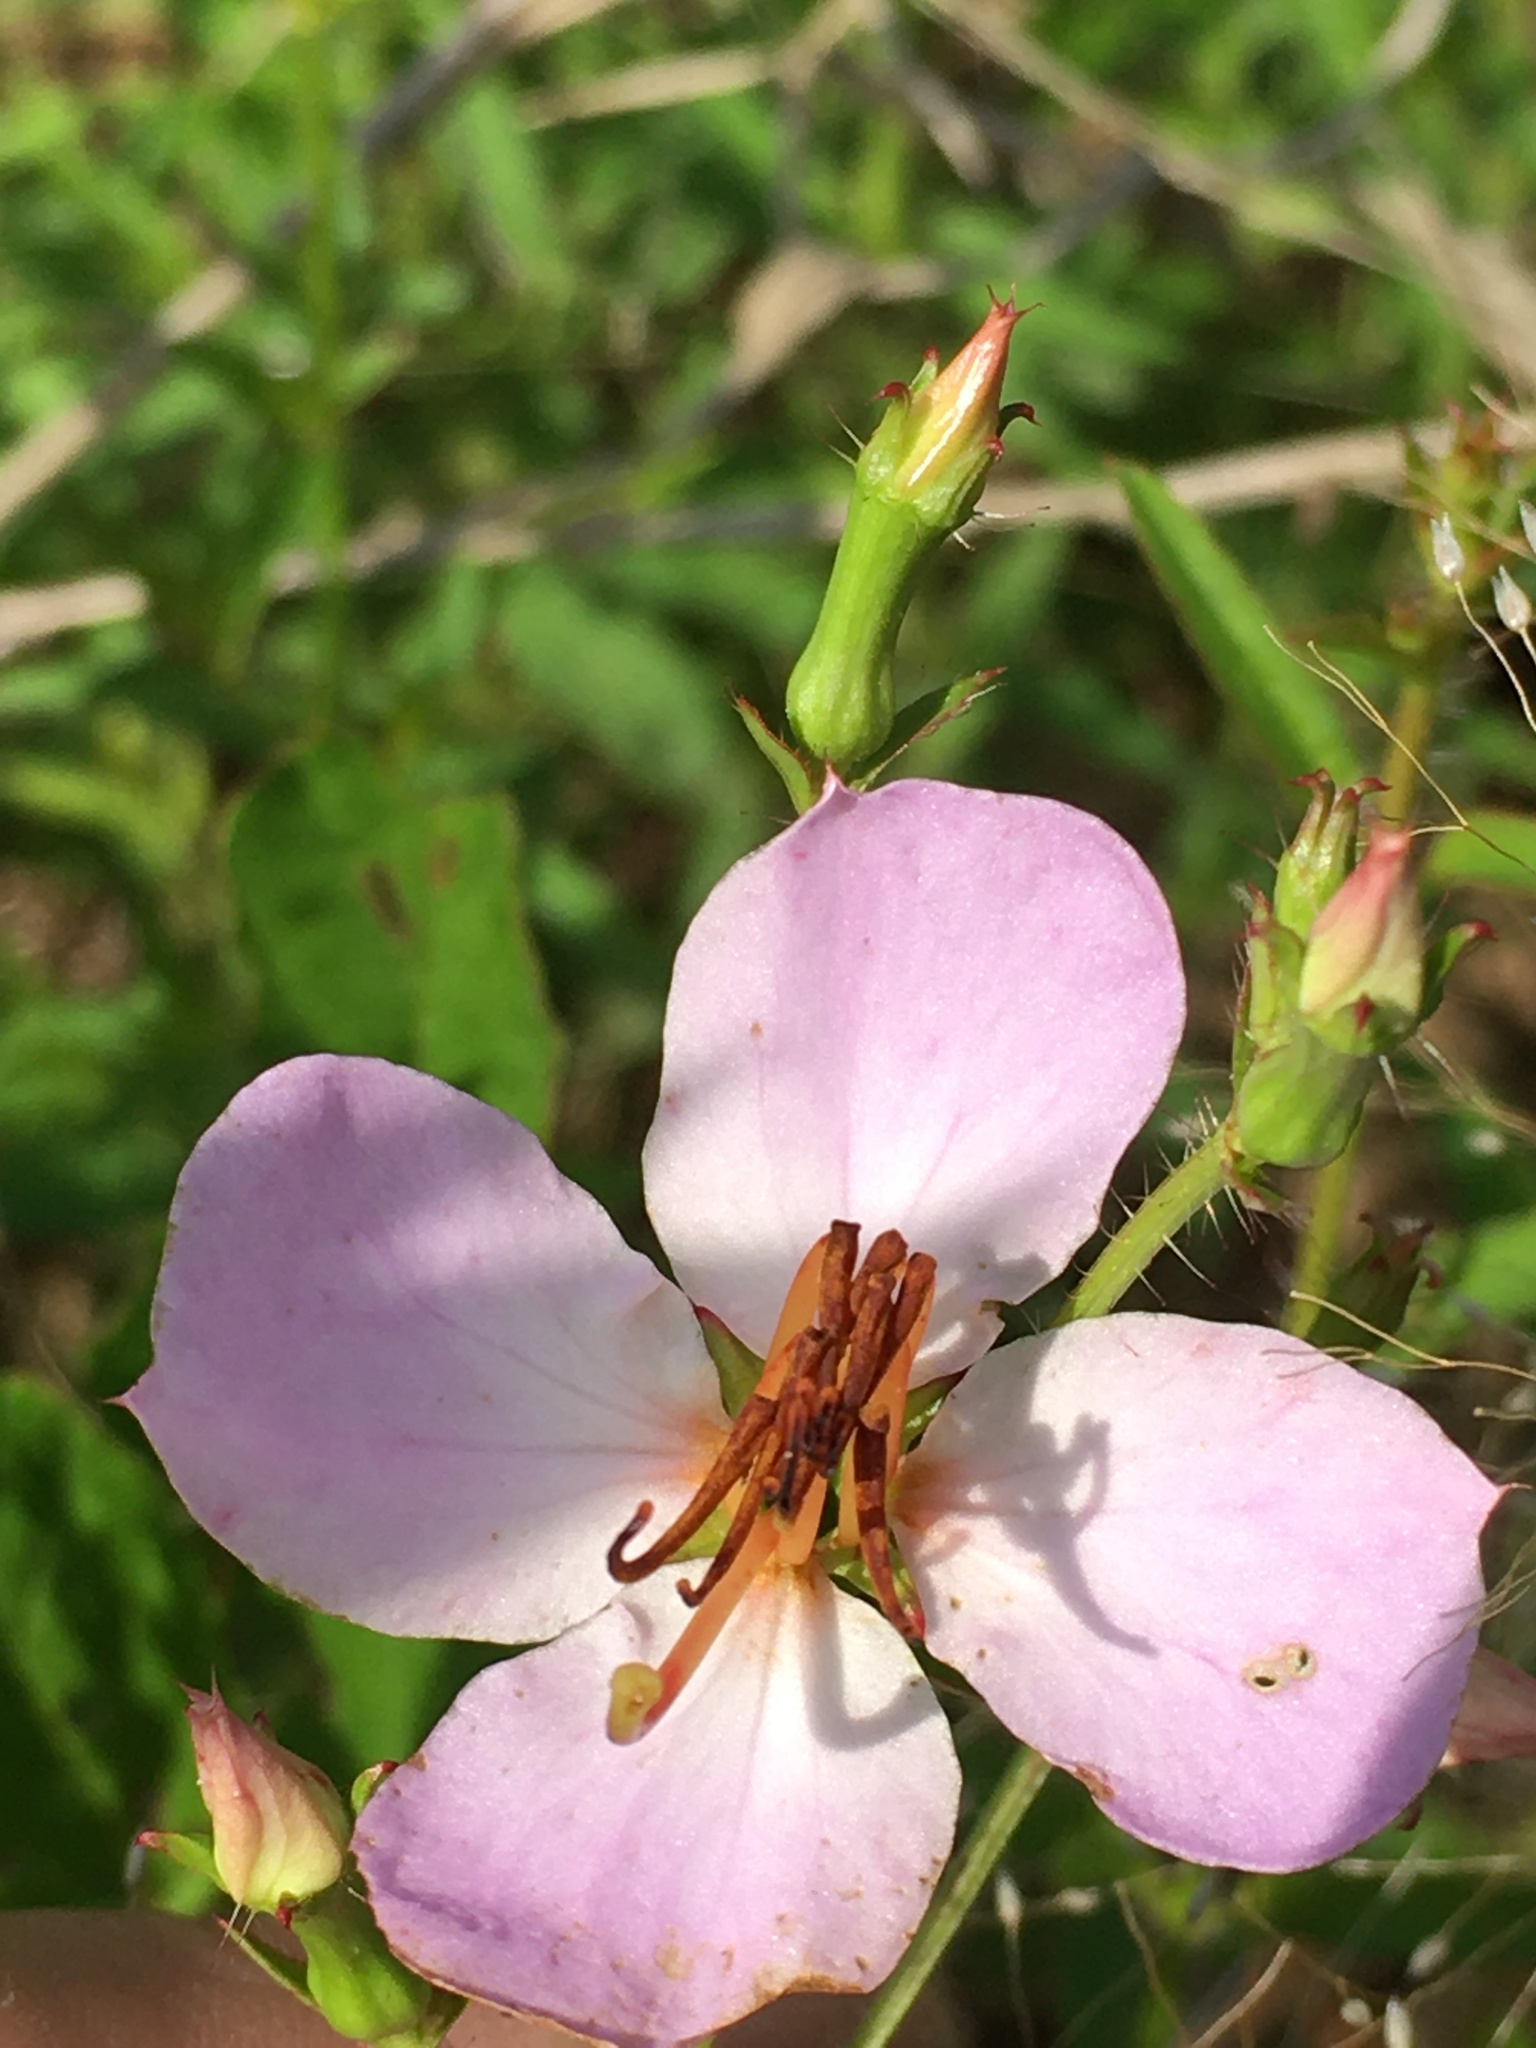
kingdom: Plantae
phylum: Tracheophyta
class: Magnoliopsida
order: Myrtales
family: Melastomataceae
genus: Rhexia
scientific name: Rhexia mariana
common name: Dull meadow-pitcher
